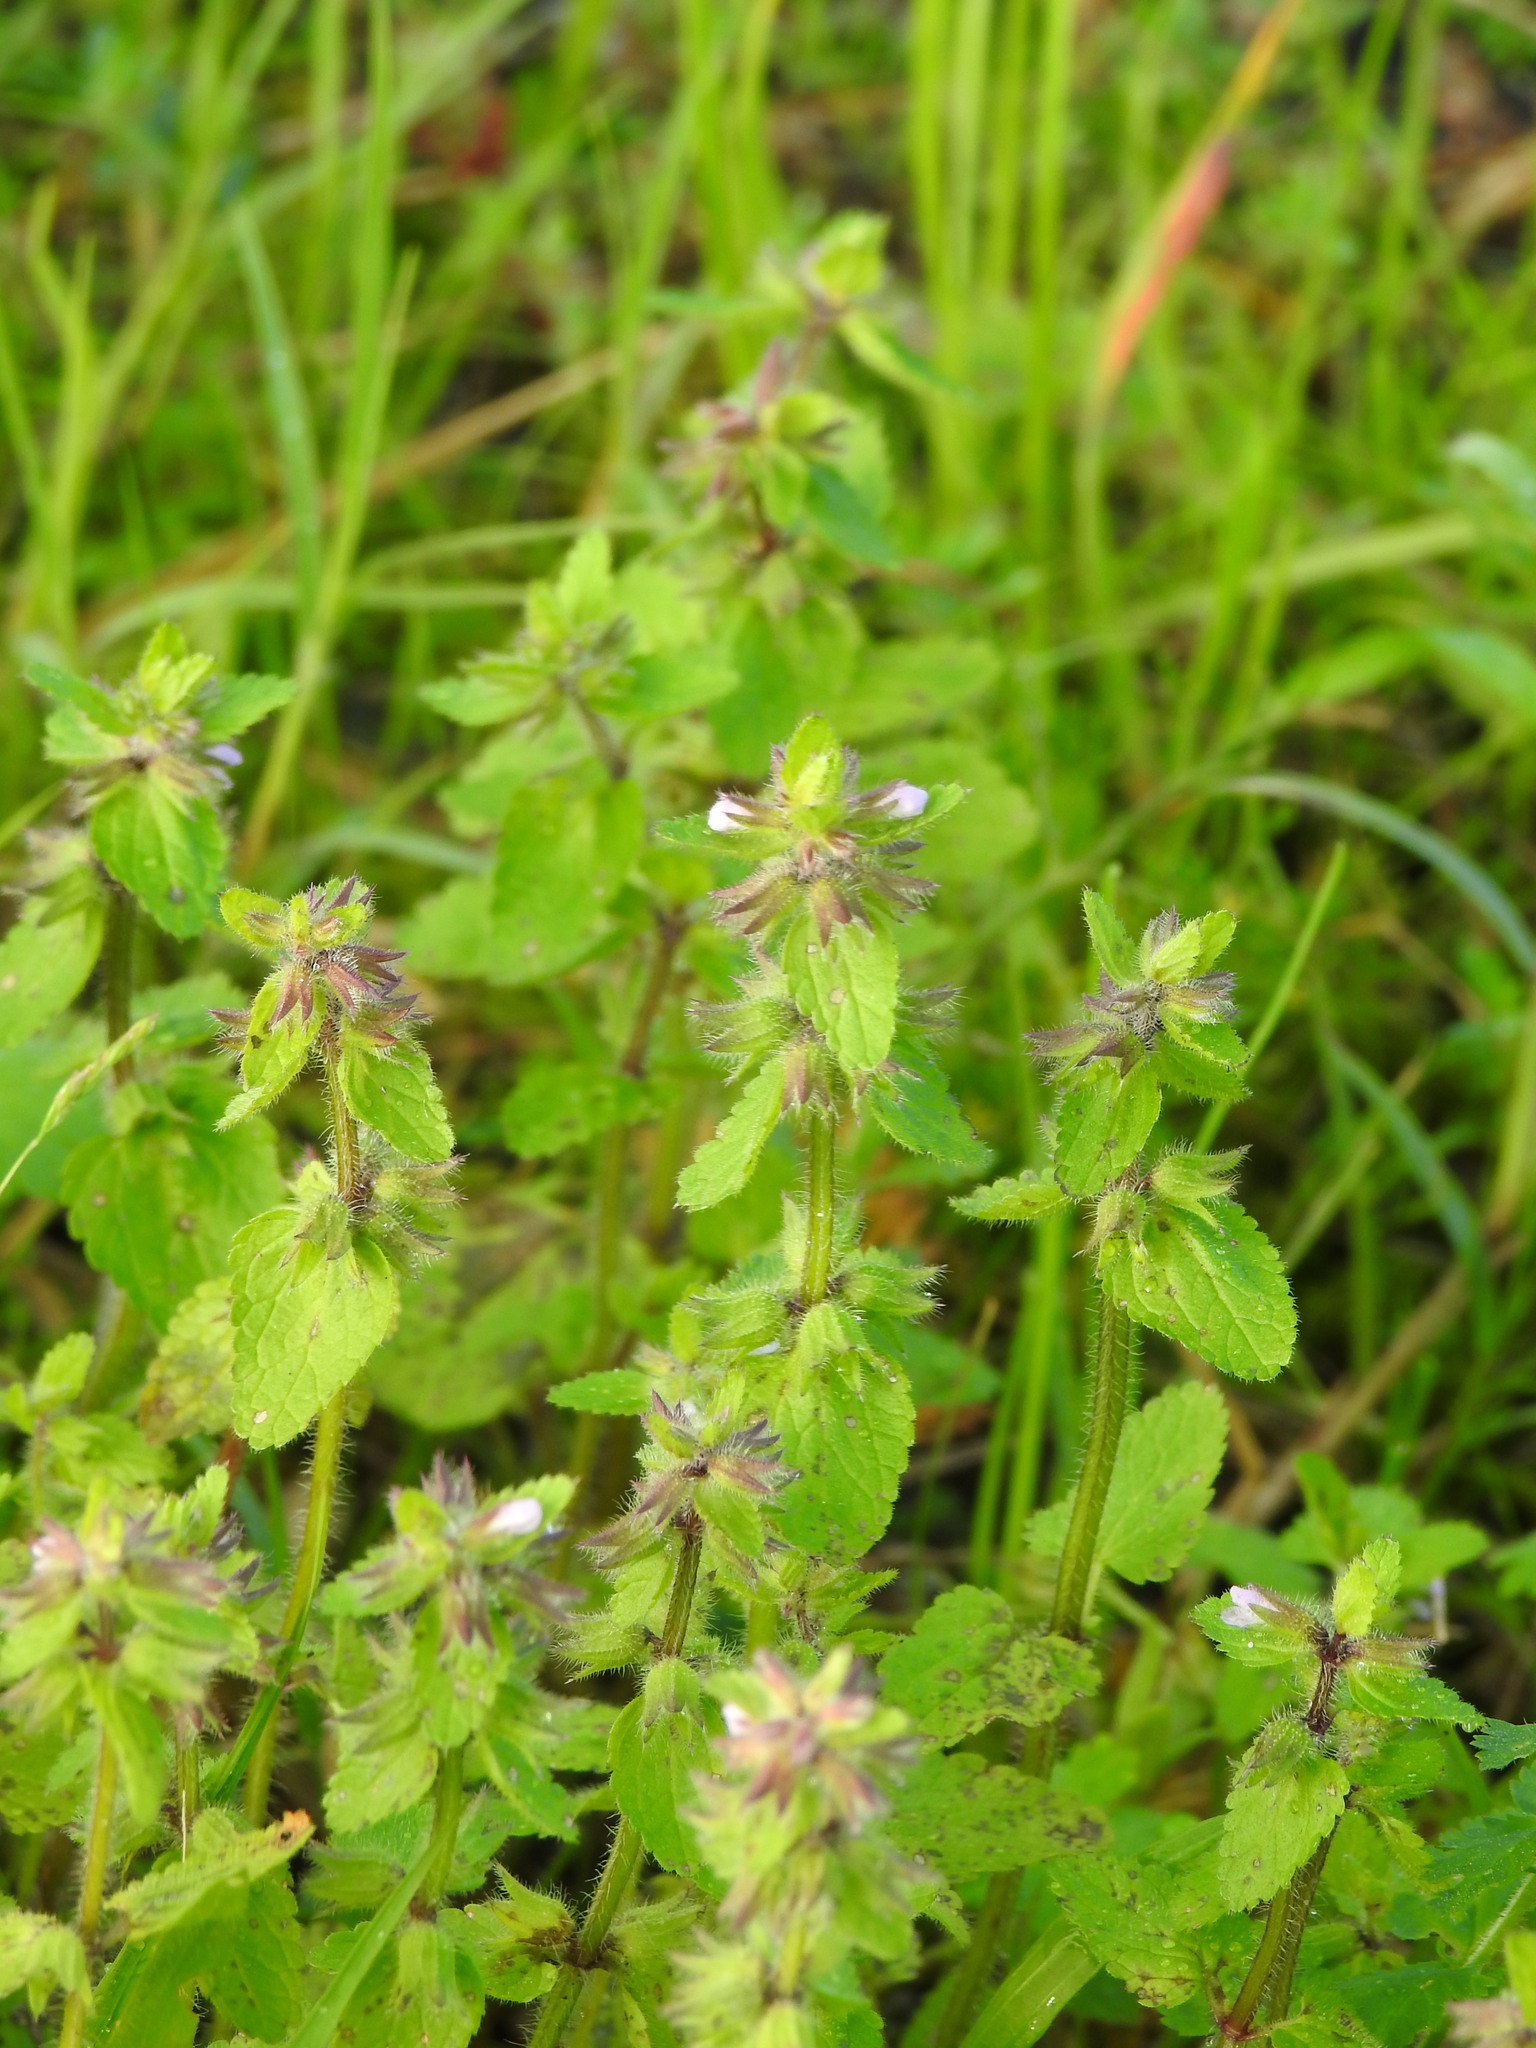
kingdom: Plantae
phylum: Tracheophyta
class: Magnoliopsida
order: Lamiales
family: Lamiaceae
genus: Stachys
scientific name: Stachys arvensis
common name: Field woundwort
